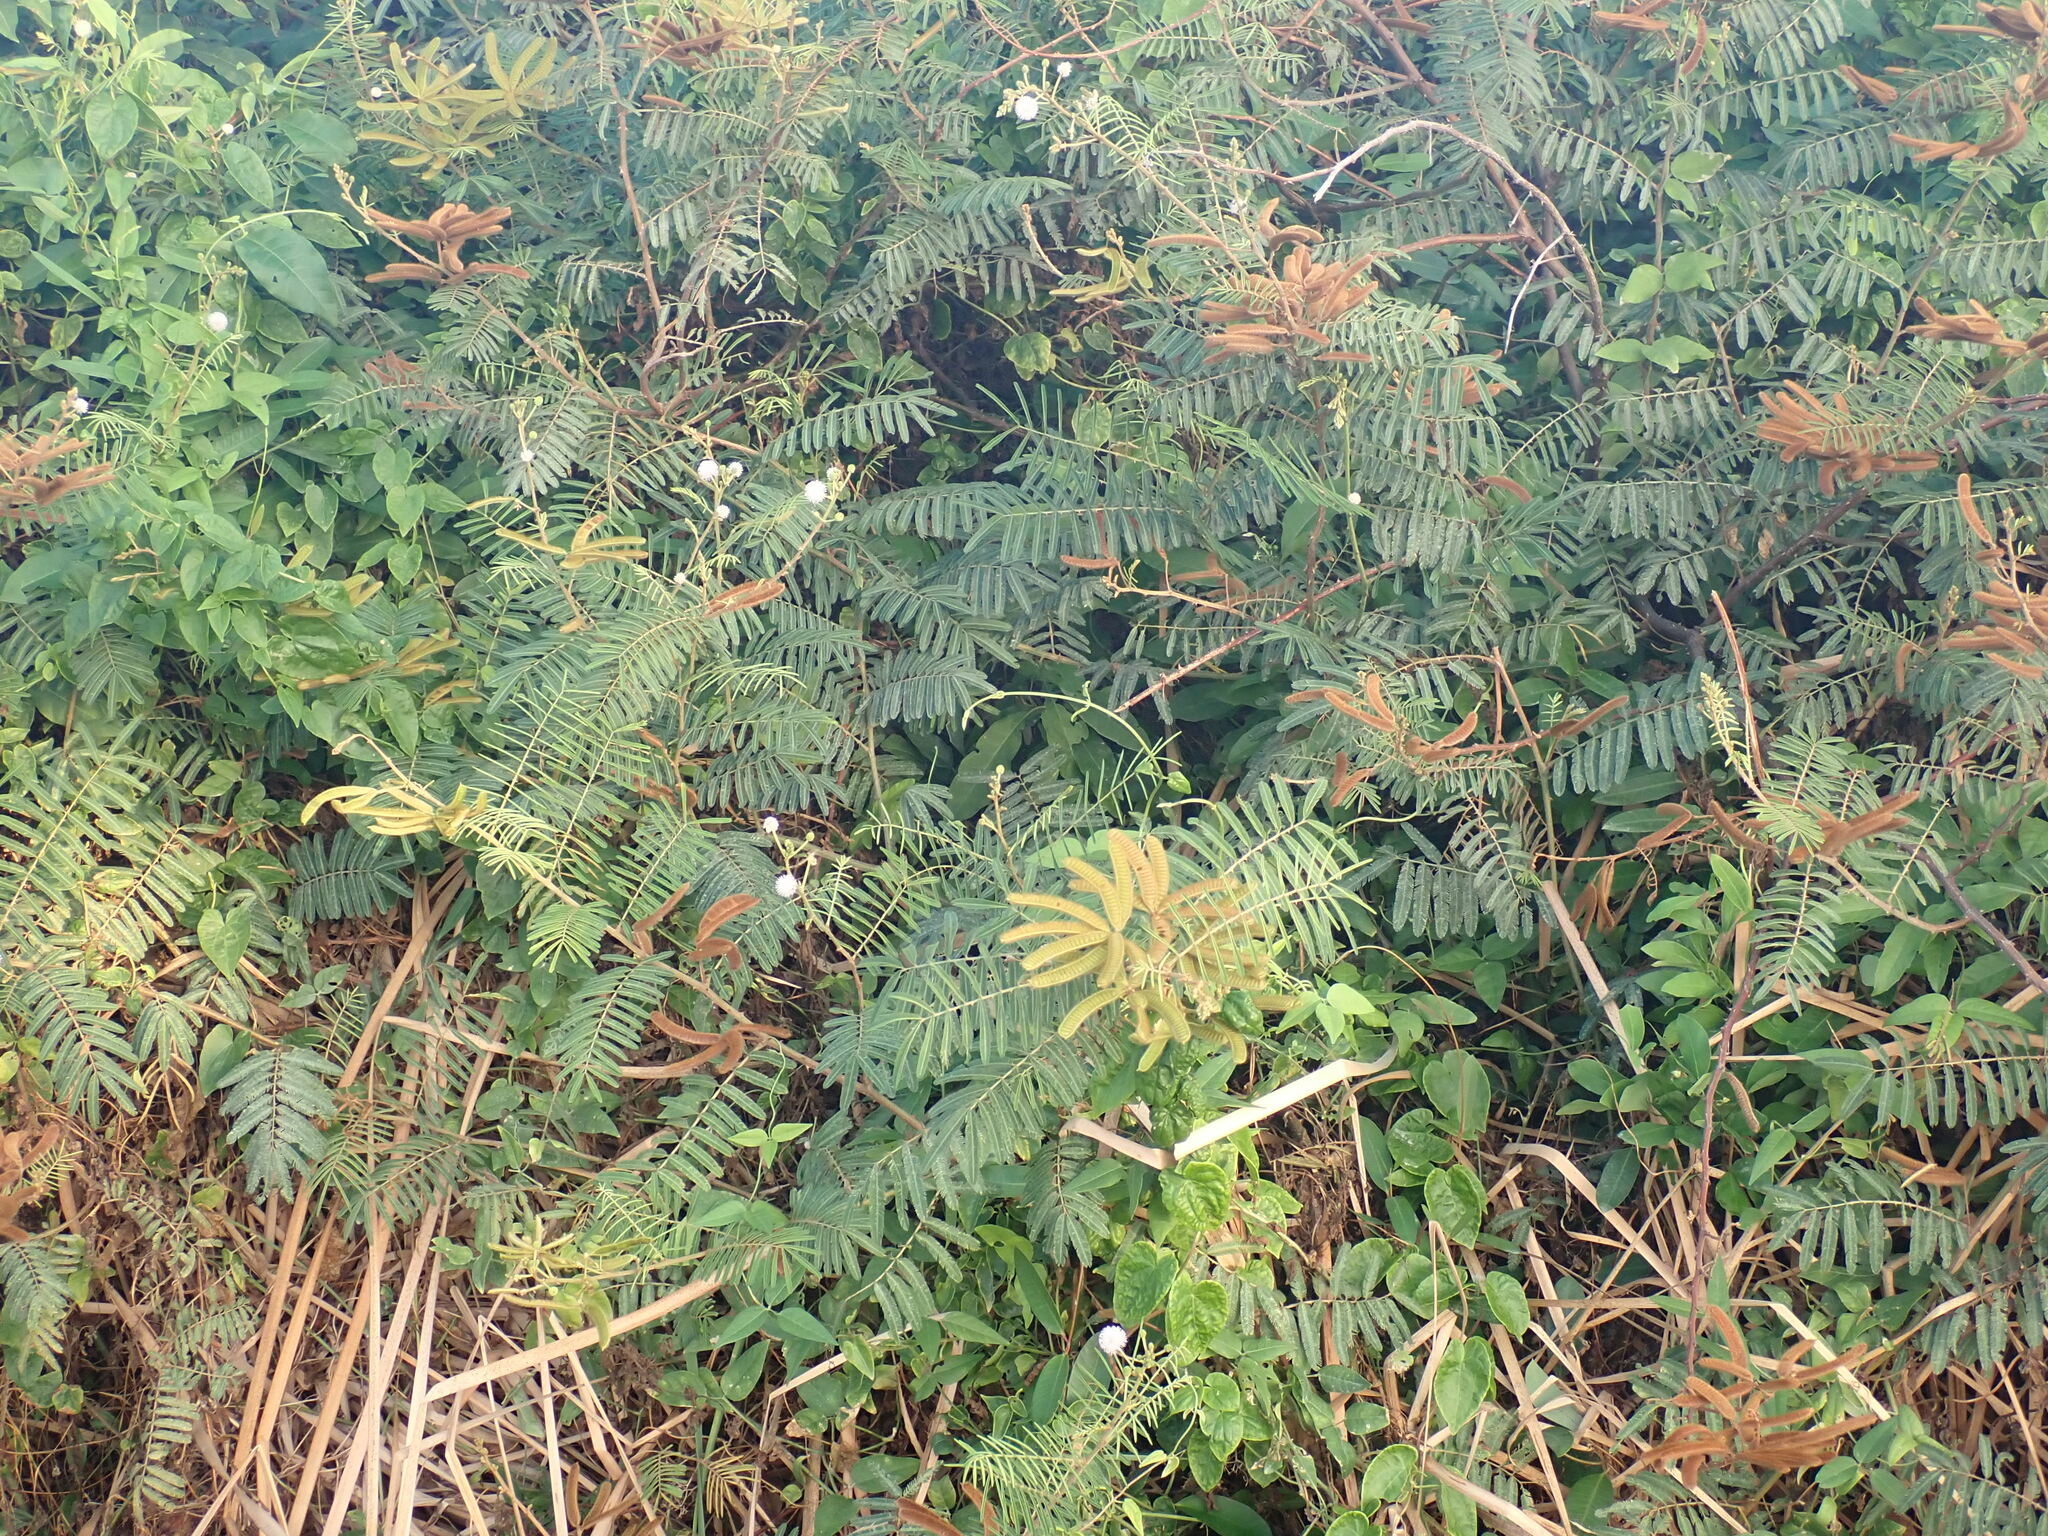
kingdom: Plantae
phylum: Tracheophyta
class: Magnoliopsida
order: Fabales
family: Fabaceae
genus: Mimosa
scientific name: Mimosa pigra
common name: Black mimosa
